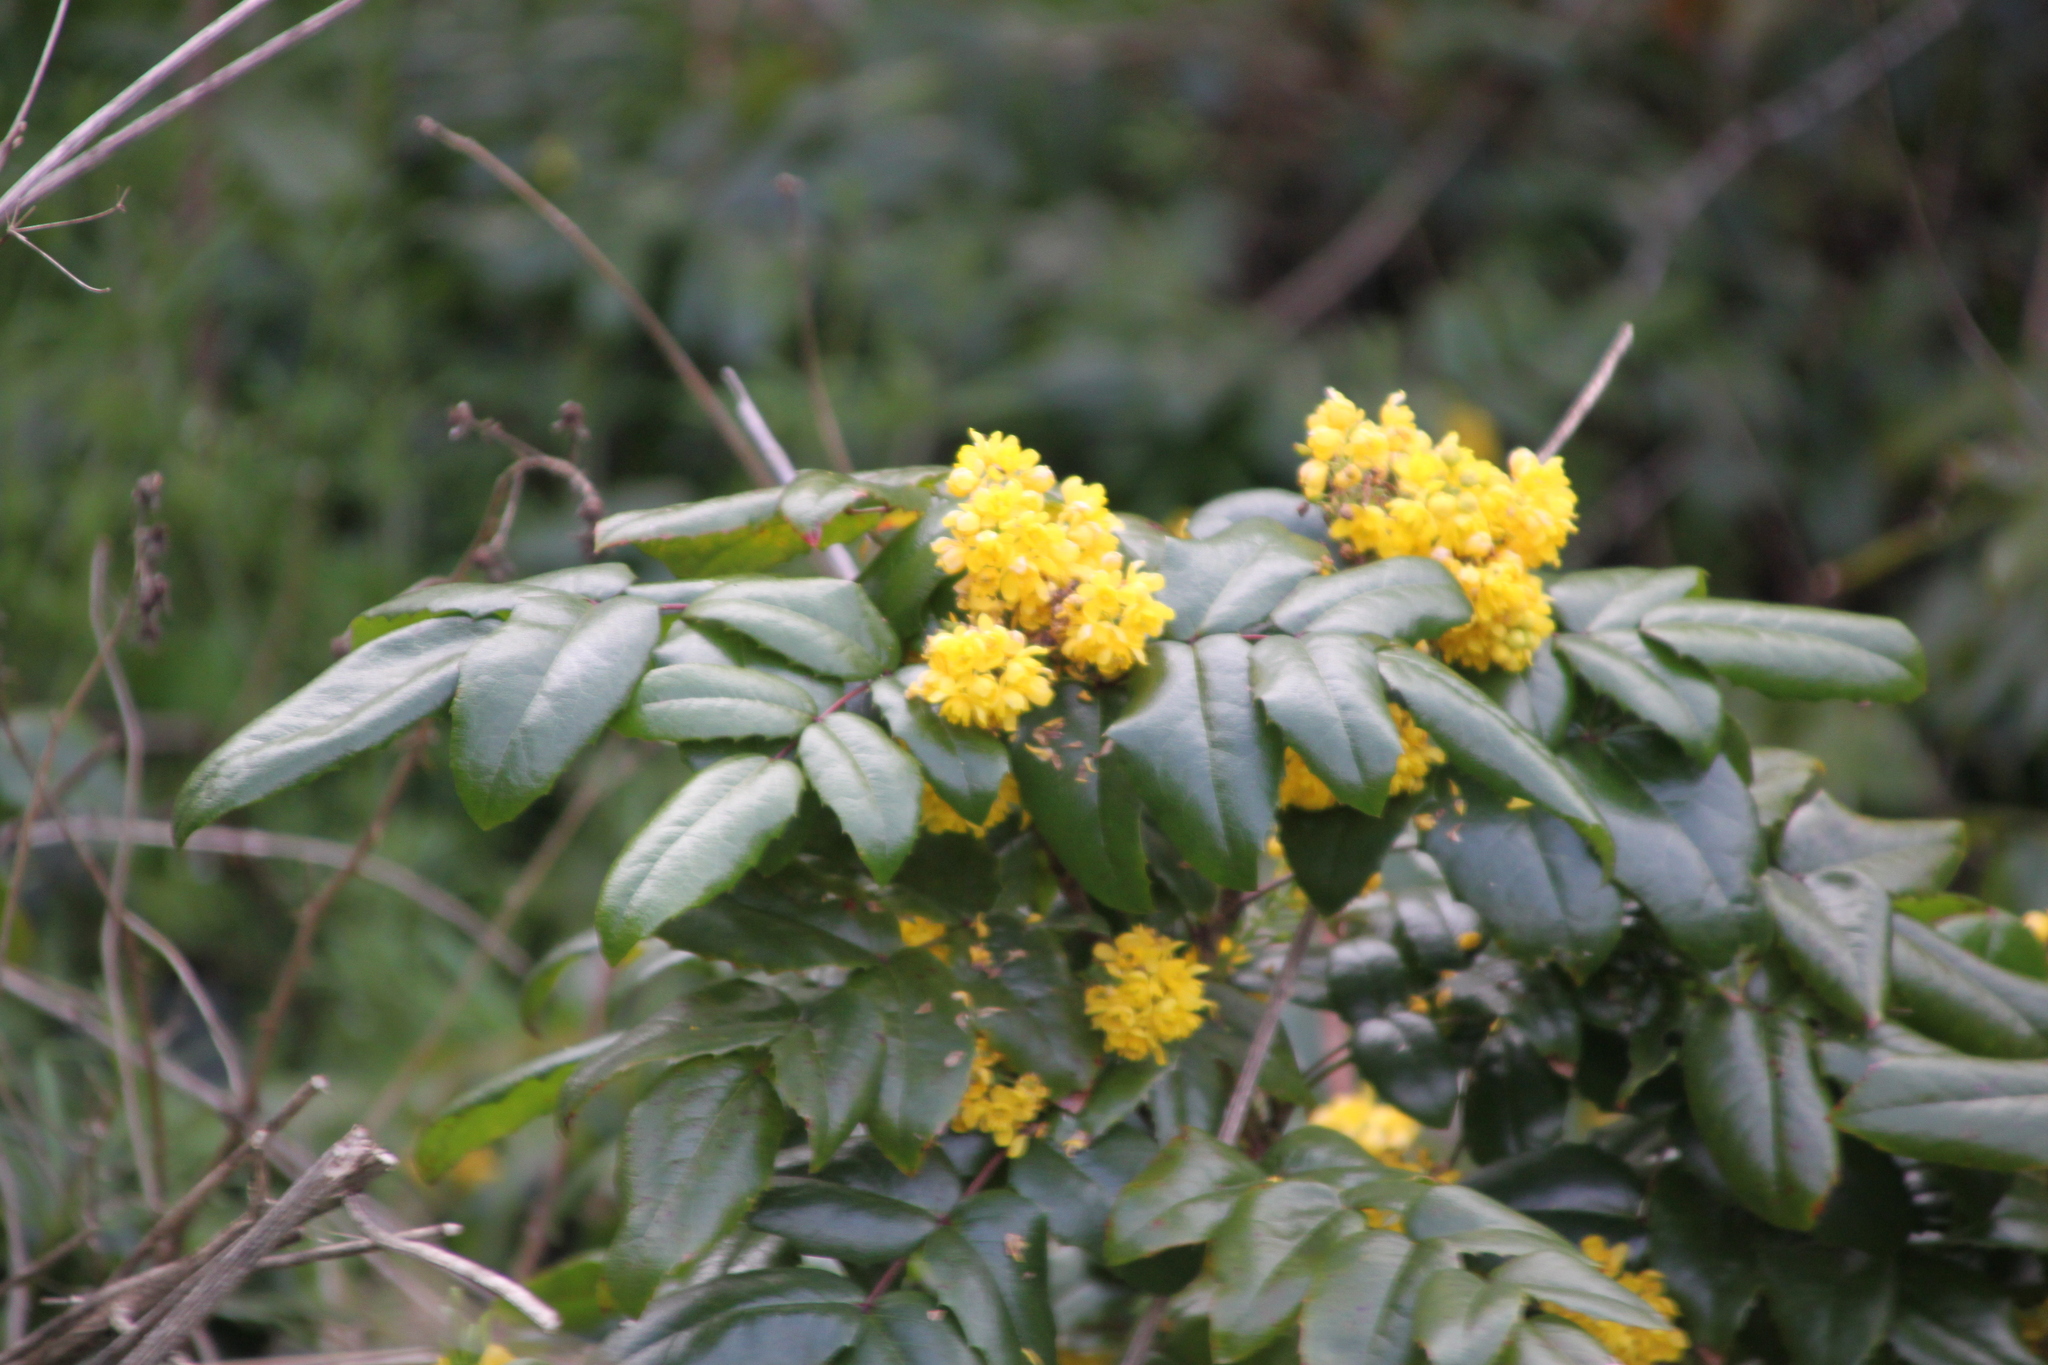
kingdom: Plantae
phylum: Tracheophyta
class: Magnoliopsida
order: Ranunculales
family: Berberidaceae
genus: Mahonia
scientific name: Mahonia aquifolium
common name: Oregon-grape
